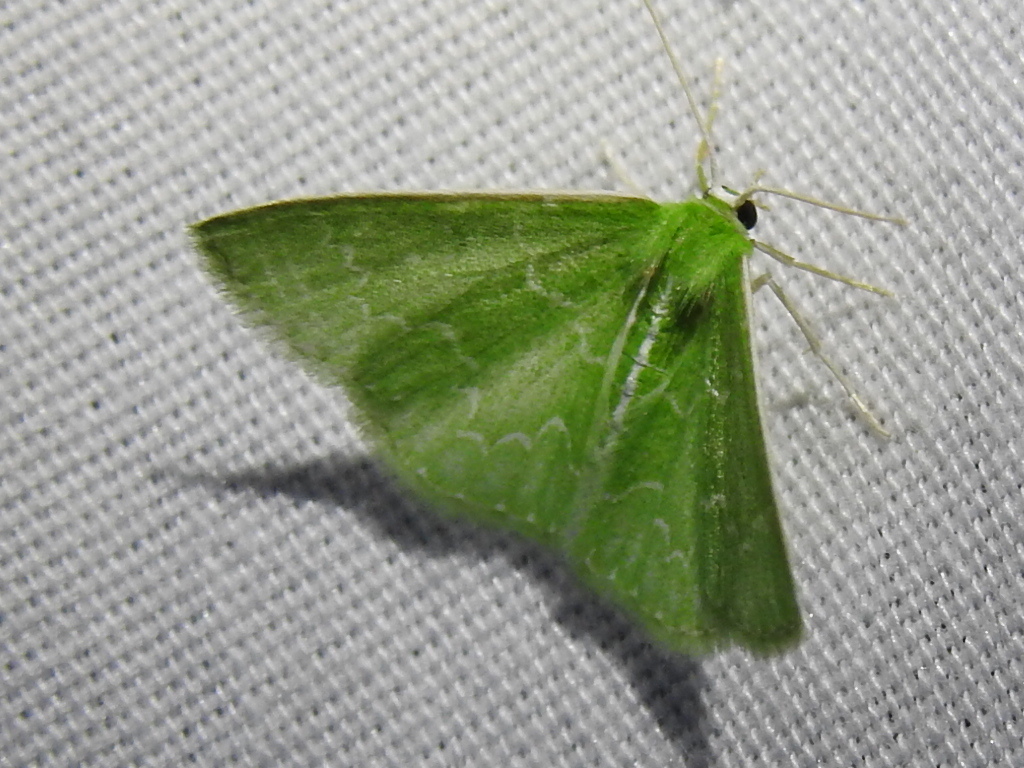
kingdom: Animalia
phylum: Arthropoda
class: Insecta
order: Lepidoptera
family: Geometridae
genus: Synchlora
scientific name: Synchlora frondaria
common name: Southern emerald
